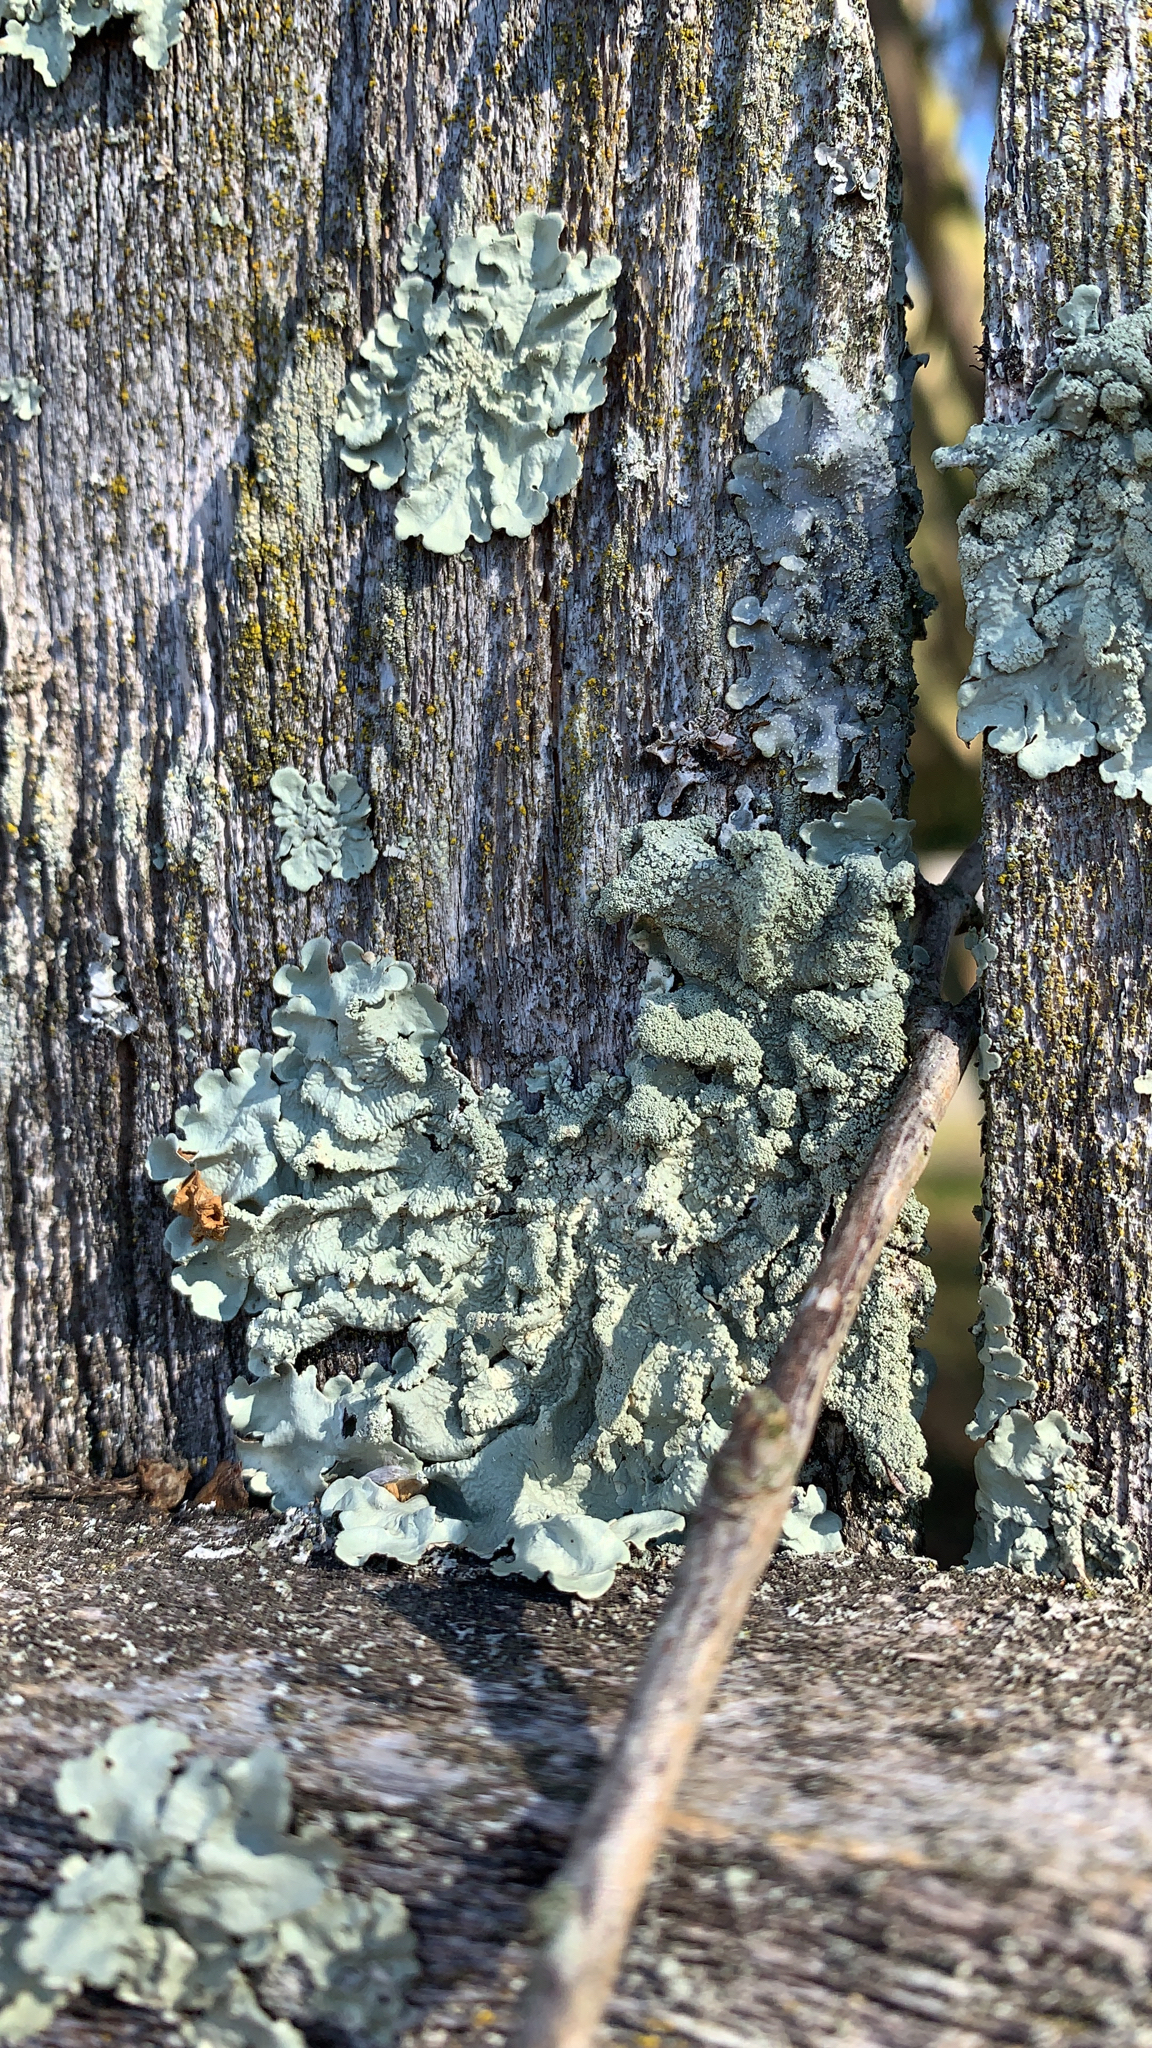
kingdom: Fungi
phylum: Ascomycota
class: Lecanoromycetes
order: Lecanorales
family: Parmeliaceae
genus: Flavoparmelia
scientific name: Flavoparmelia caperata
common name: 40-mile per hour lichen
